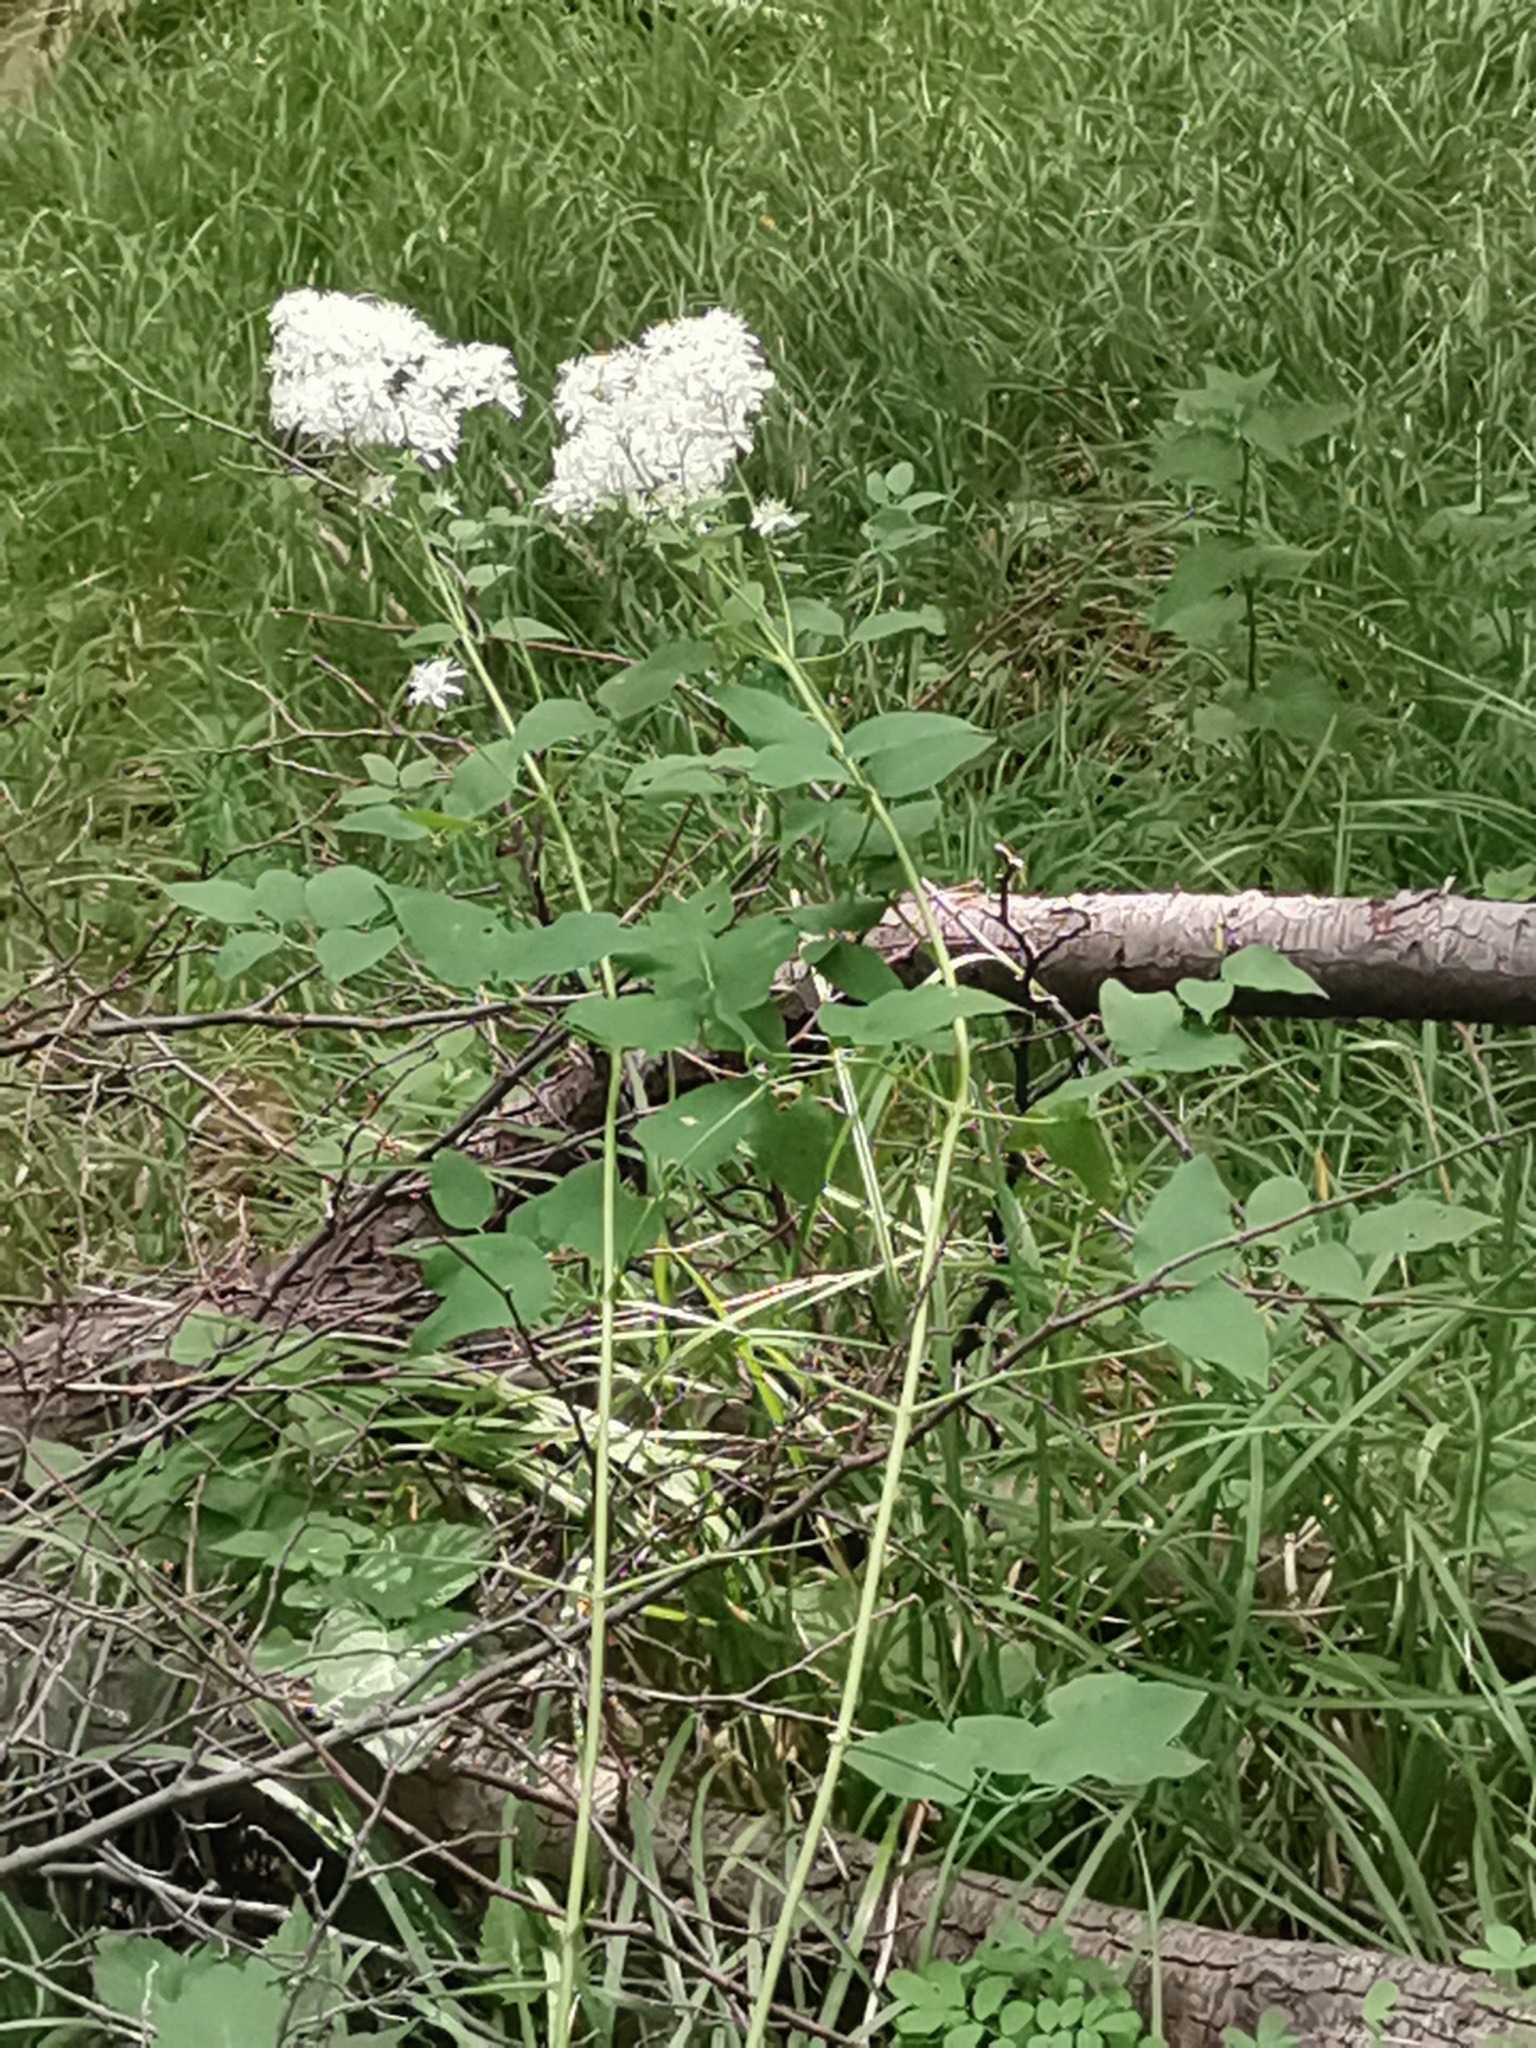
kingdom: Plantae
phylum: Tracheophyta
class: Magnoliopsida
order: Ranunculales
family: Ranunculaceae
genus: Clematis
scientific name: Clematis recta
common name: Ground clematis
